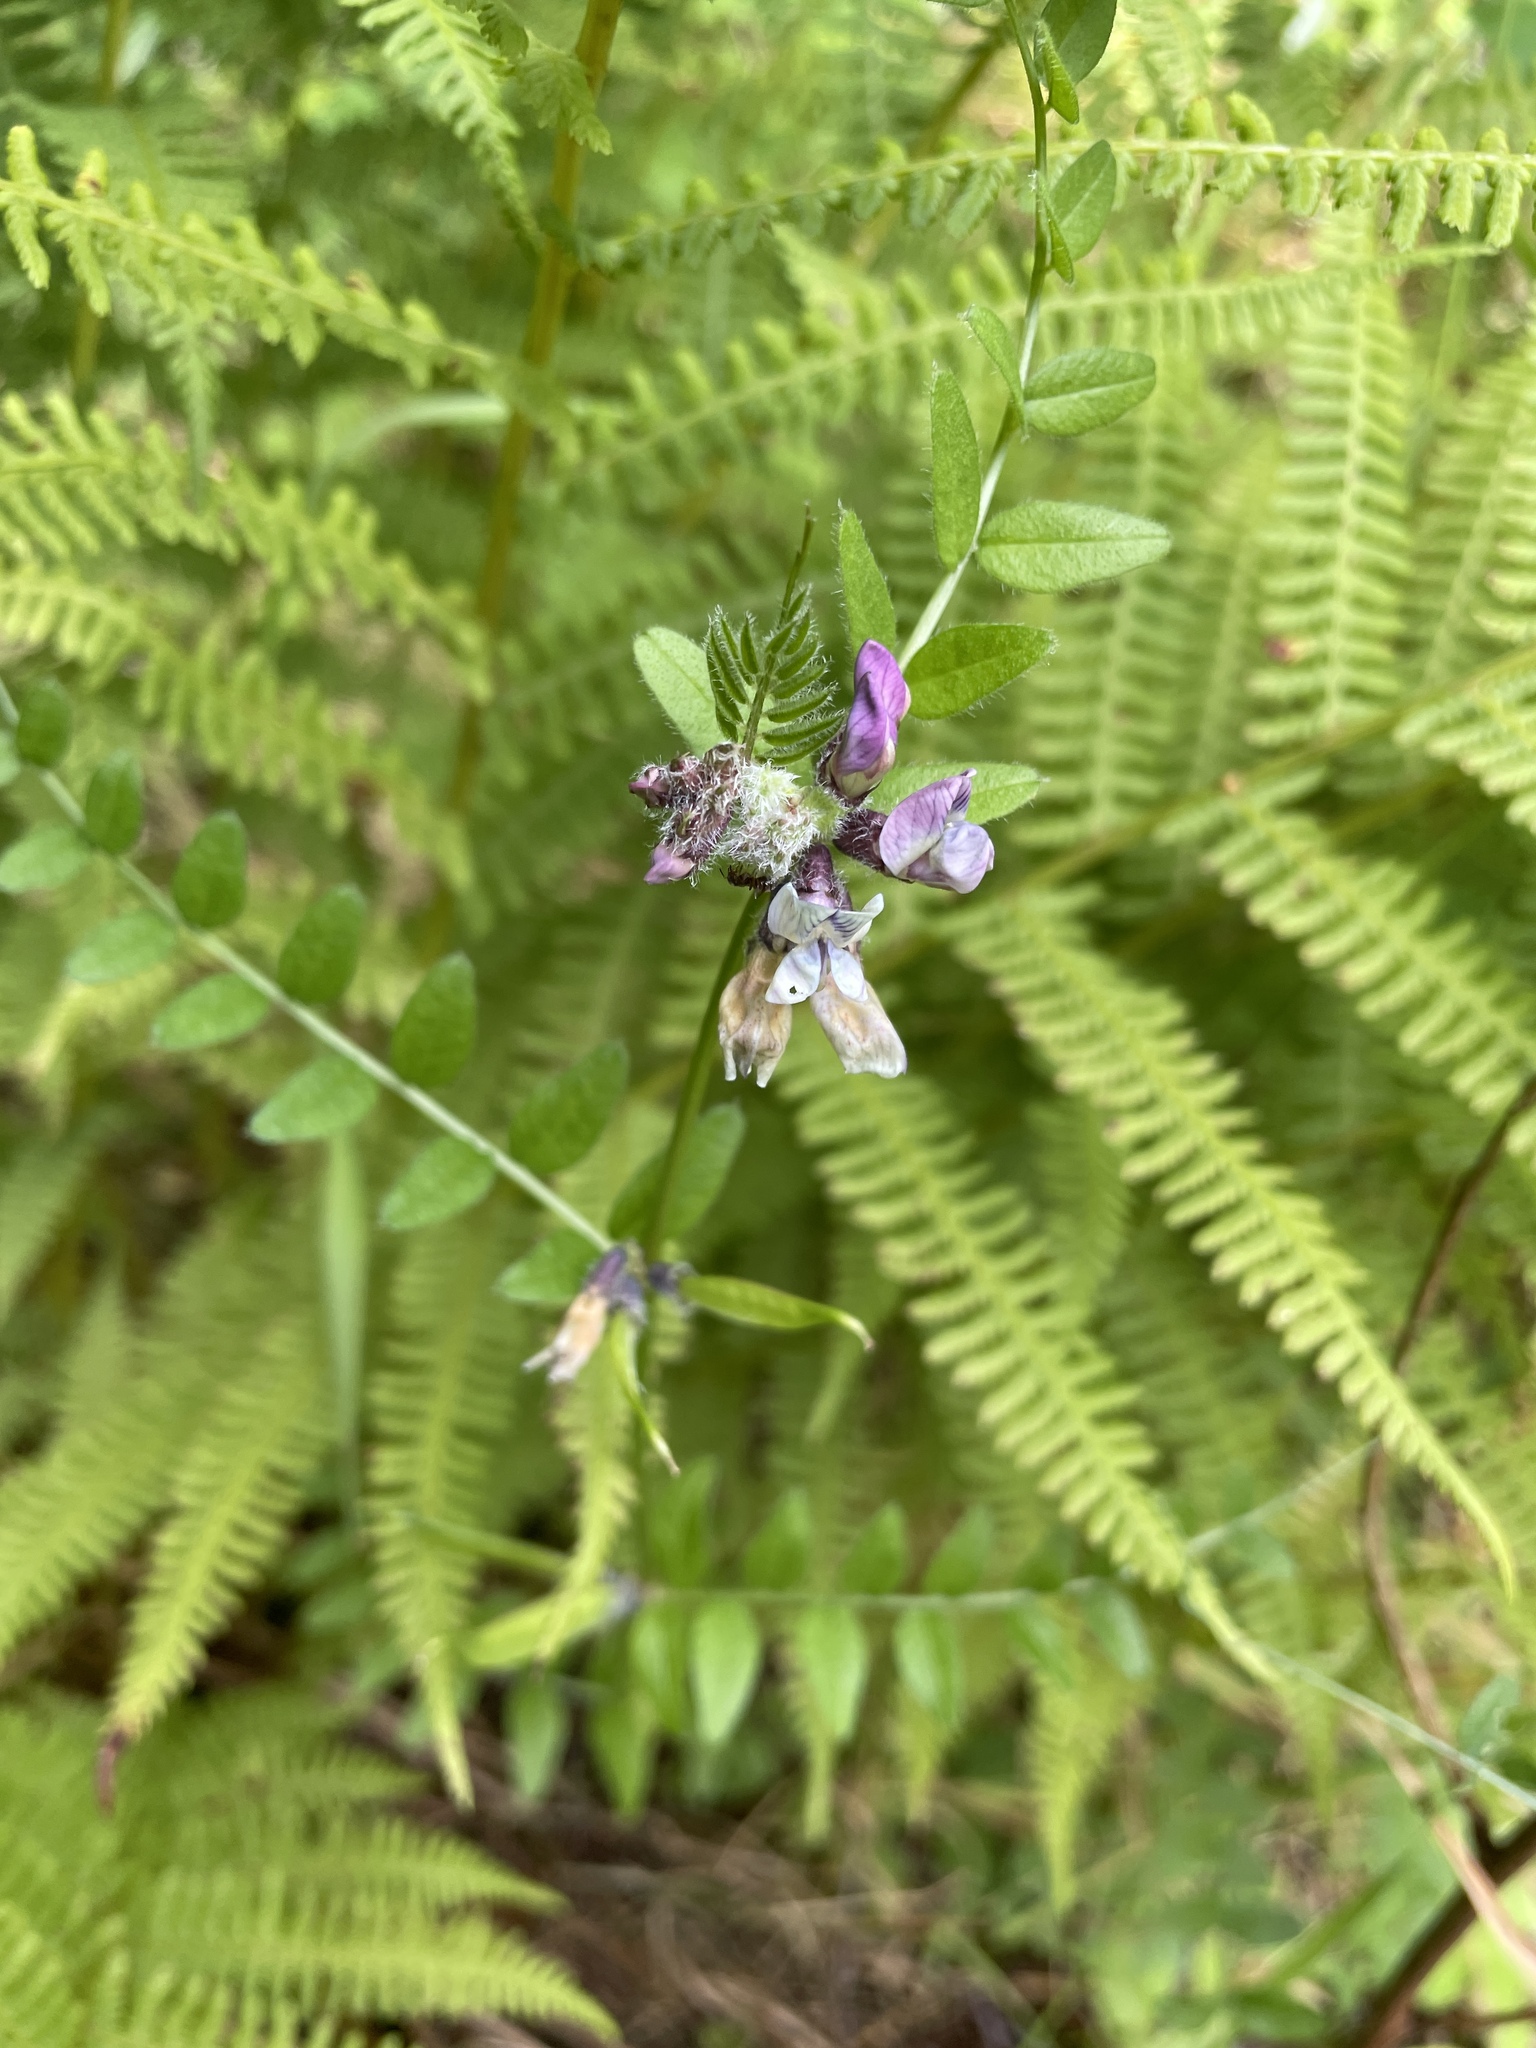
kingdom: Plantae
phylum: Tracheophyta
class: Magnoliopsida
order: Fabales
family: Fabaceae
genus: Vicia
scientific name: Vicia sepium
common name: Bush vetch
